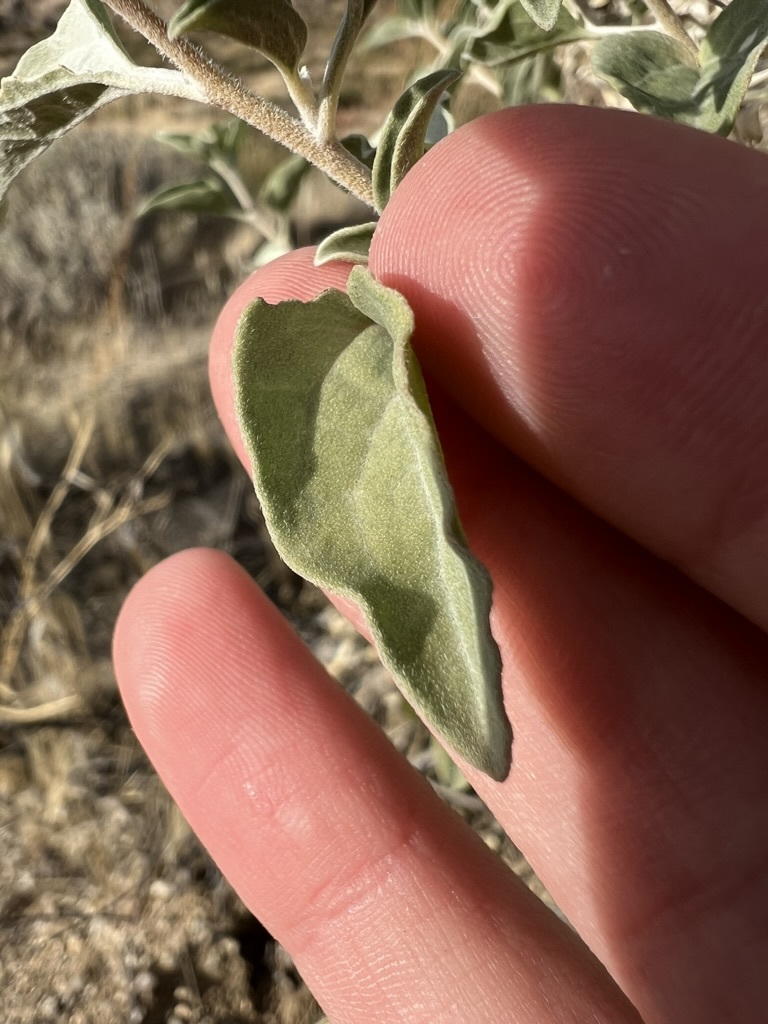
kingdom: Plantae
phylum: Tracheophyta
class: Magnoliopsida
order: Asterales
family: Asteraceae
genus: Encelia
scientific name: Encelia actoni
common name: Acton encelia
